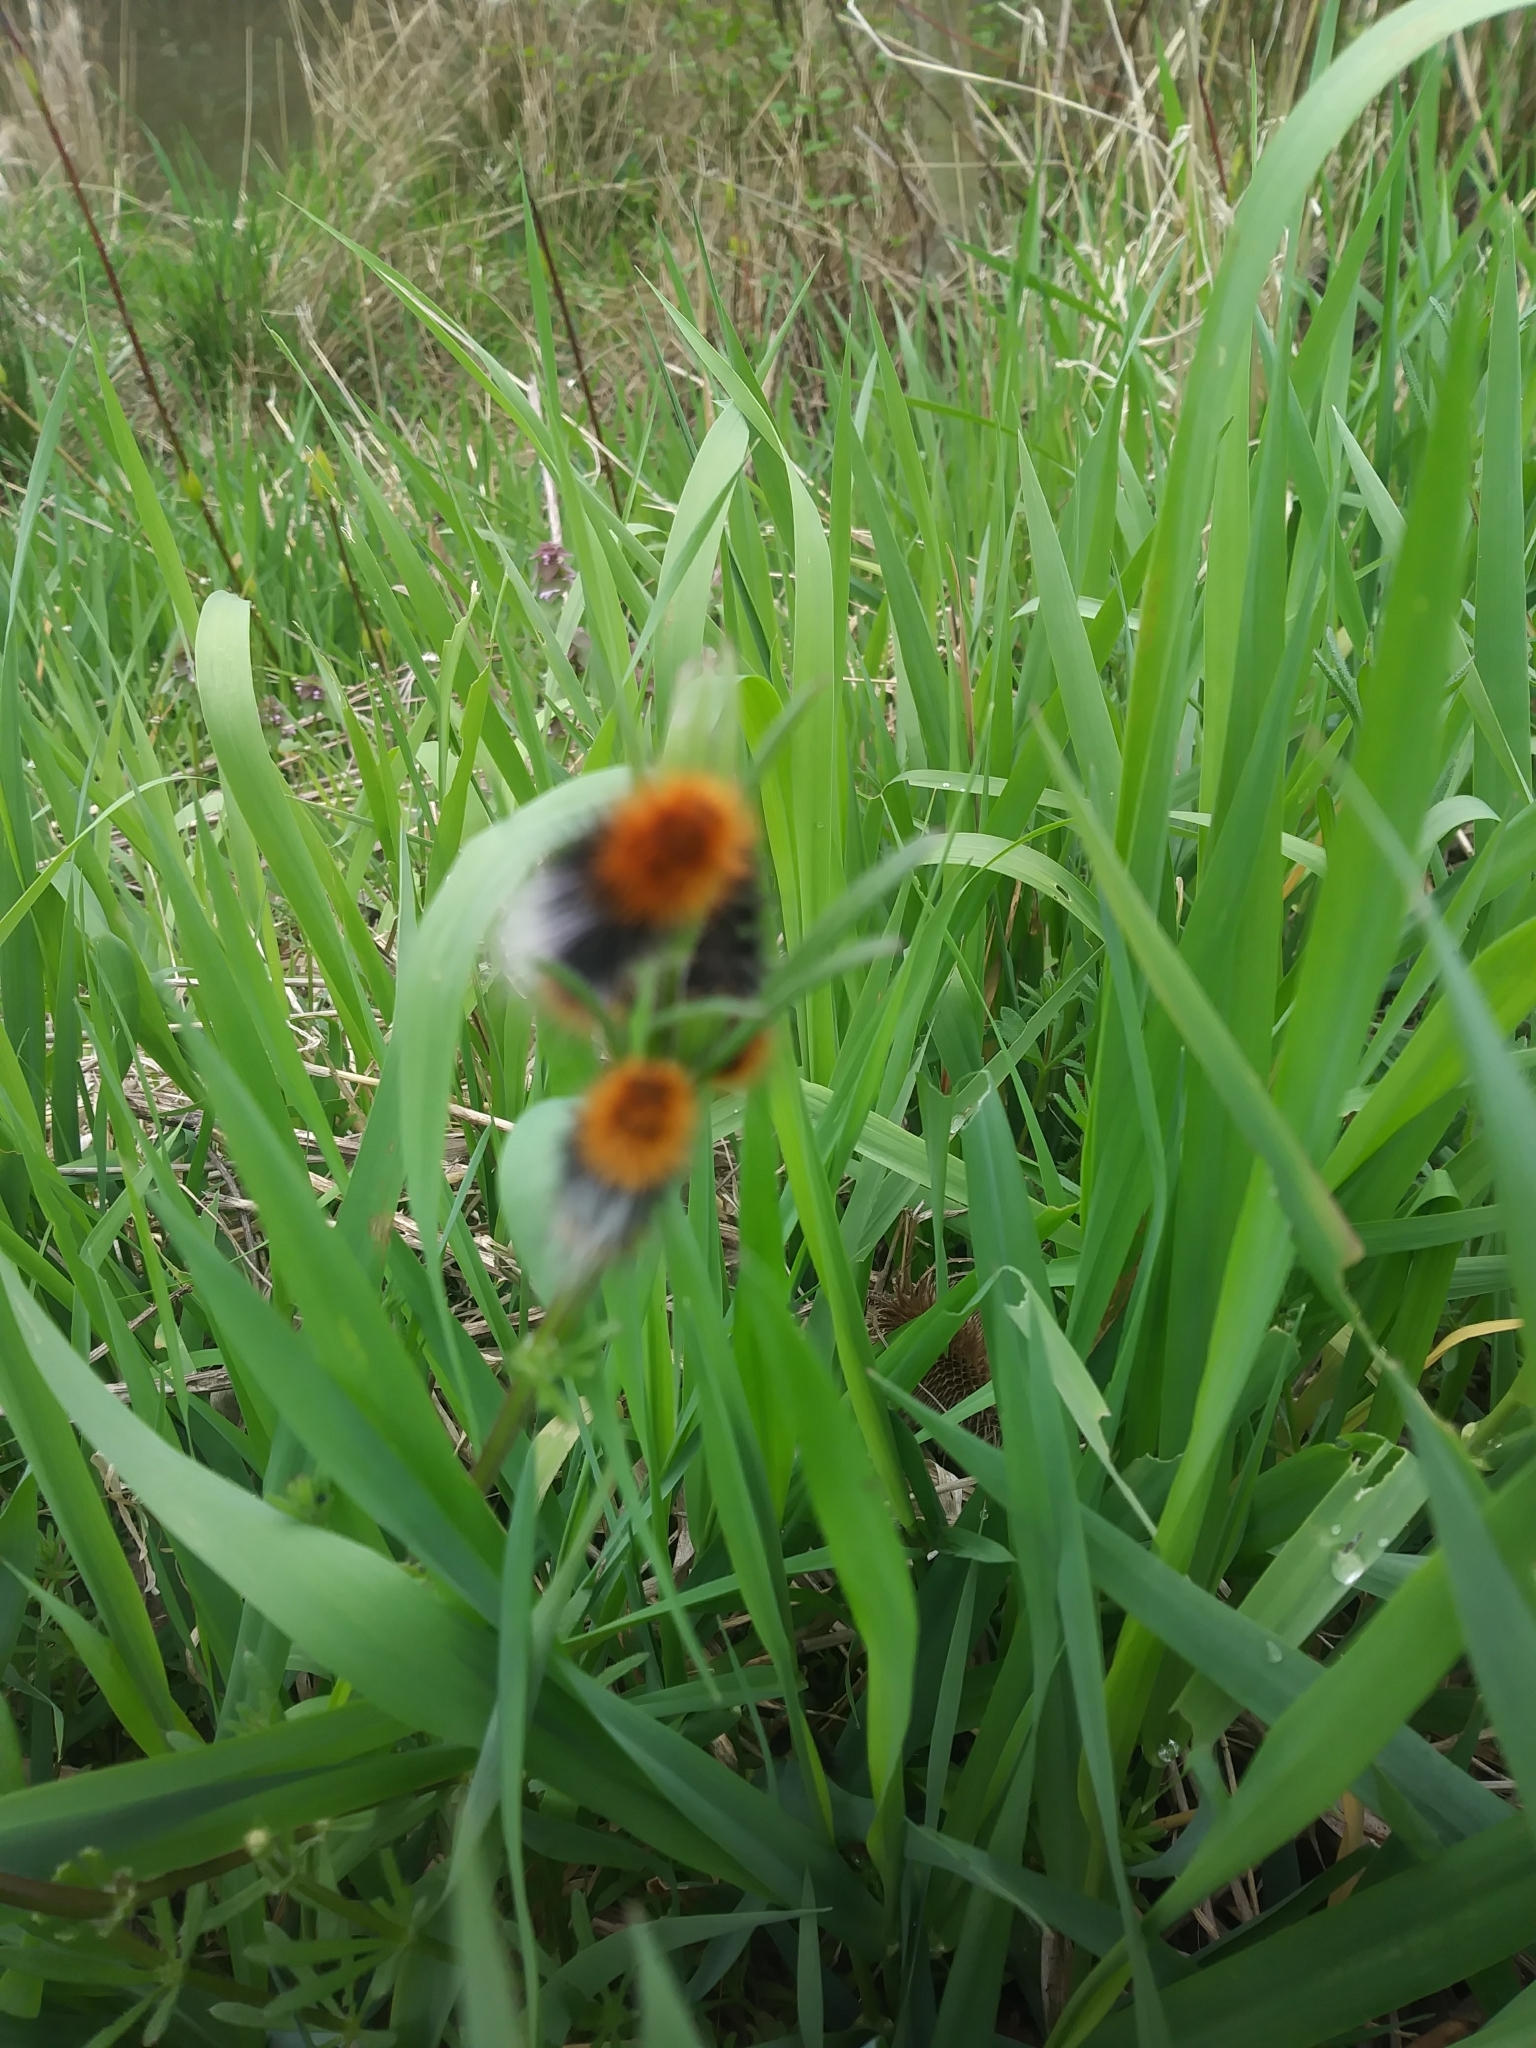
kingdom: Animalia
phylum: Arthropoda
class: Insecta
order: Lepidoptera
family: Erebidae
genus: Arctia
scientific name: Arctia tigrina
